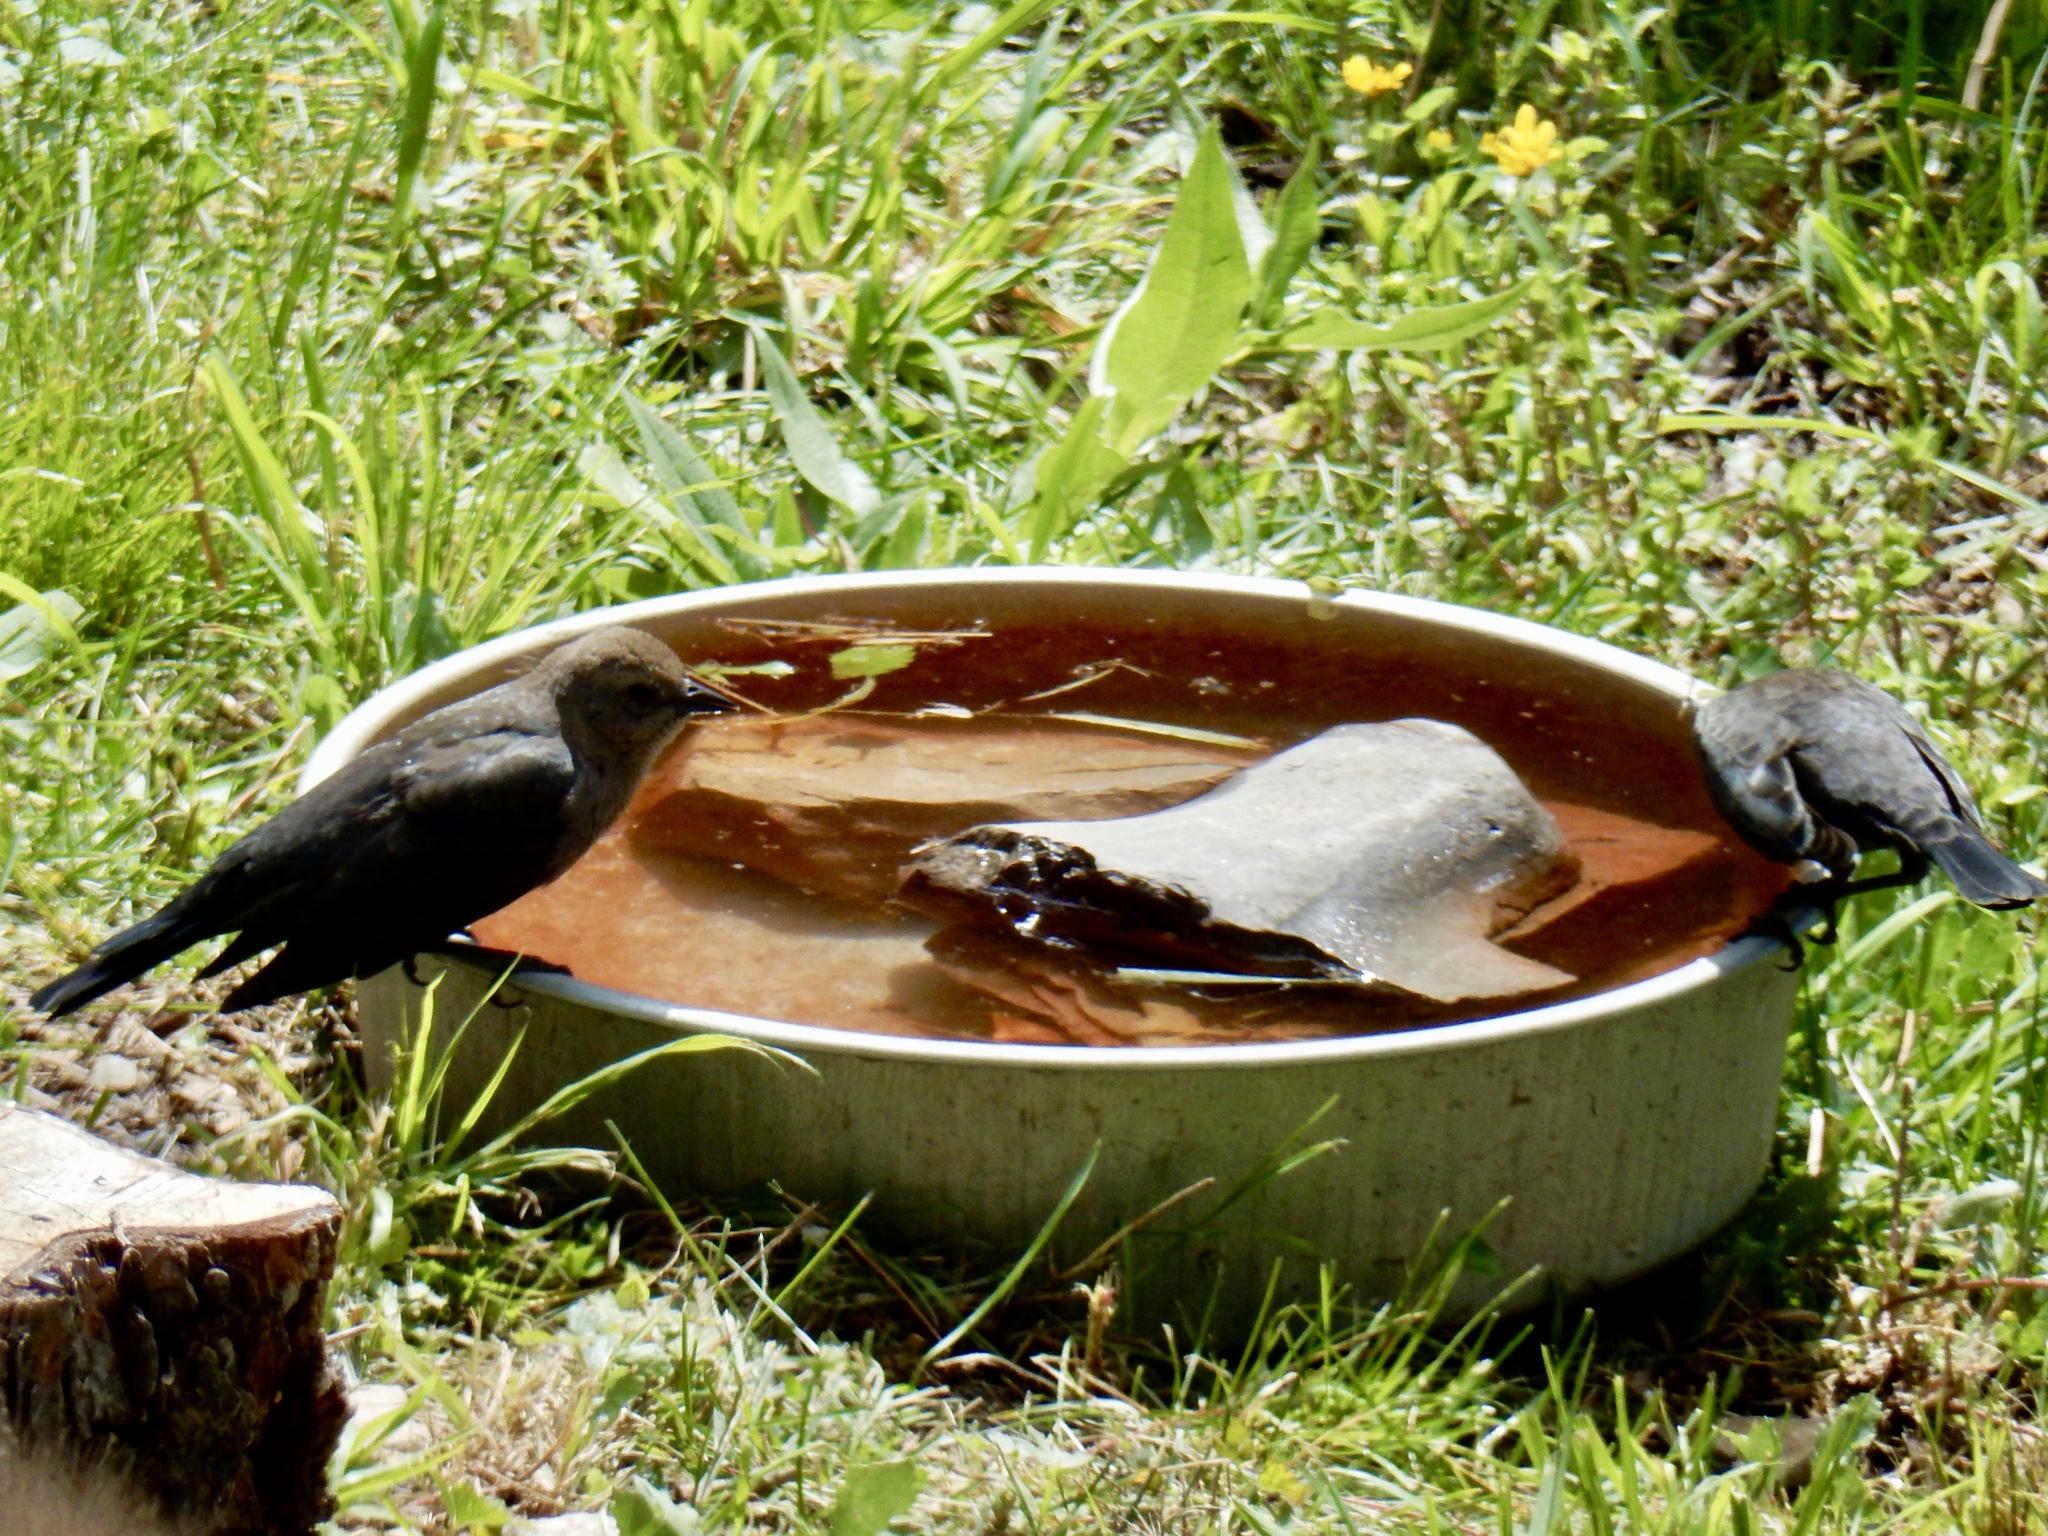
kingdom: Animalia
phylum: Chordata
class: Aves
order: Passeriformes
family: Icteridae
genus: Euphagus
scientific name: Euphagus cyanocephalus
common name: Brewer's blackbird
